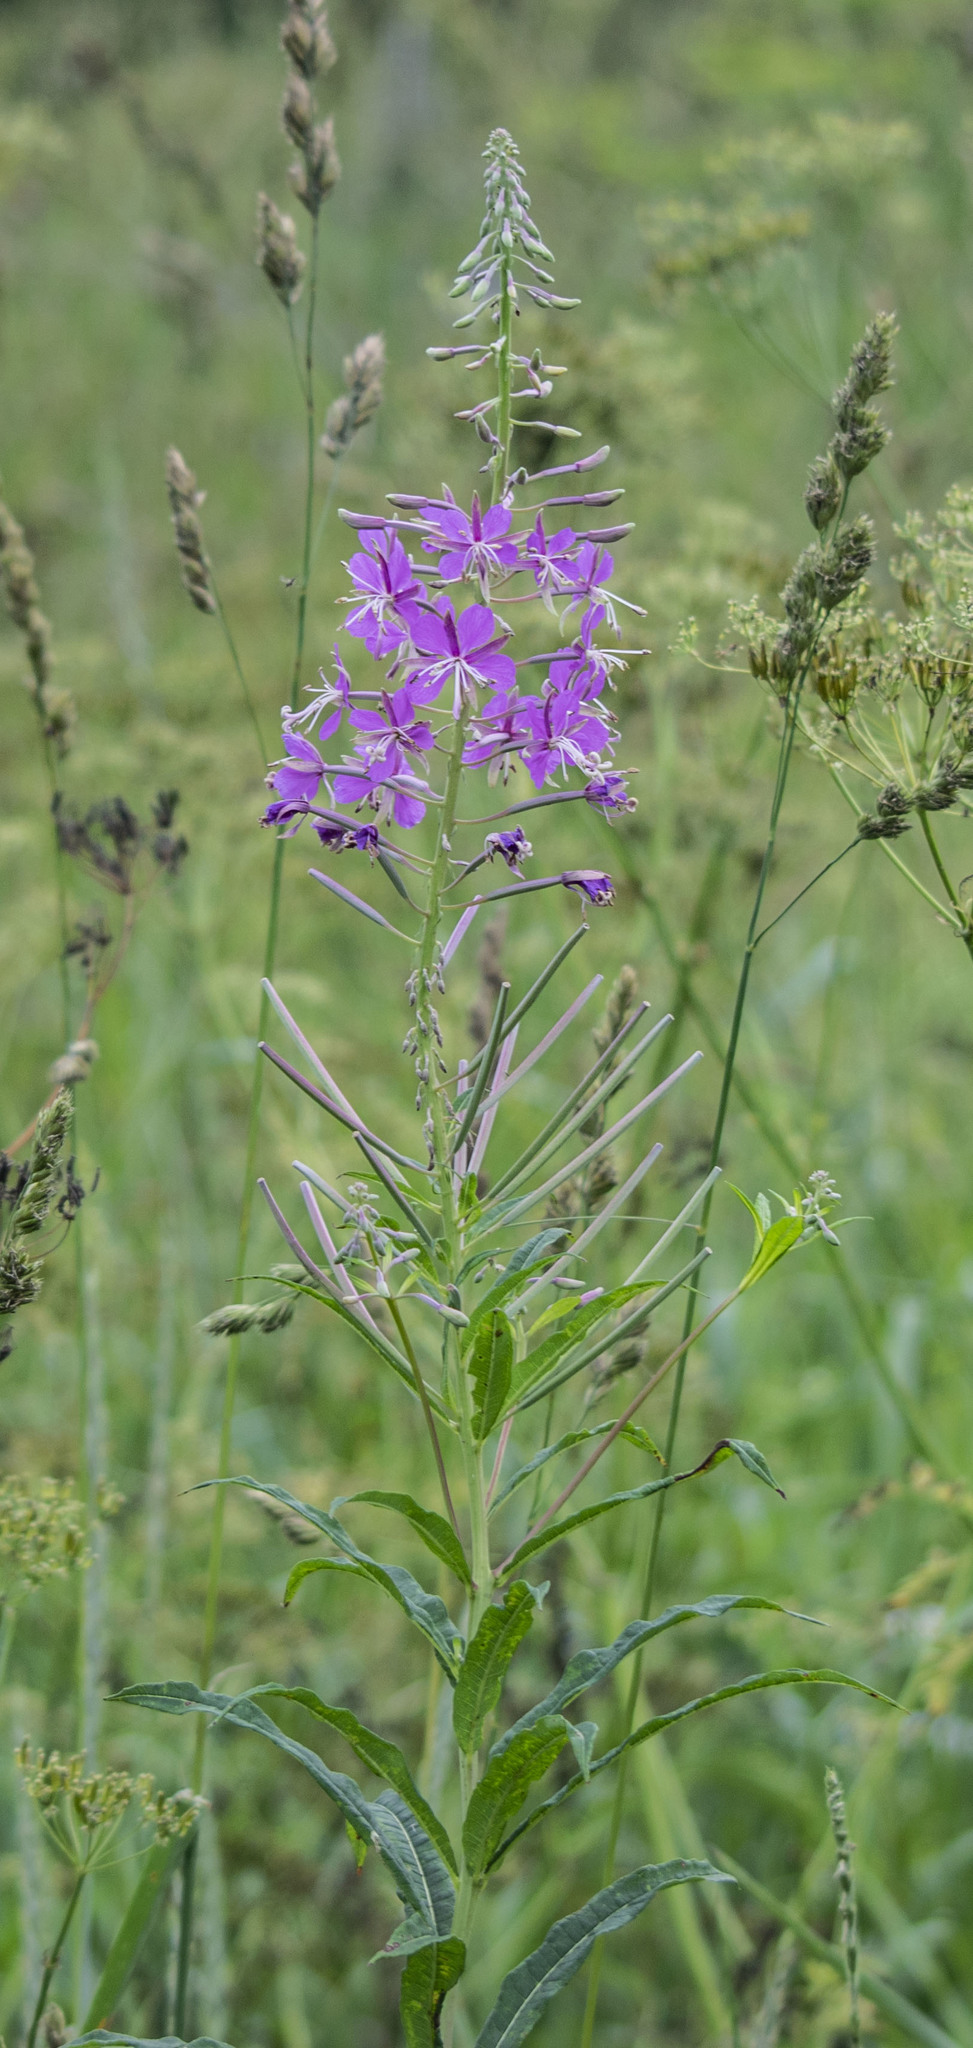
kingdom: Plantae
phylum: Tracheophyta
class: Magnoliopsida
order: Myrtales
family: Onagraceae
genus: Chamaenerion
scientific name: Chamaenerion angustifolium
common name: Fireweed
